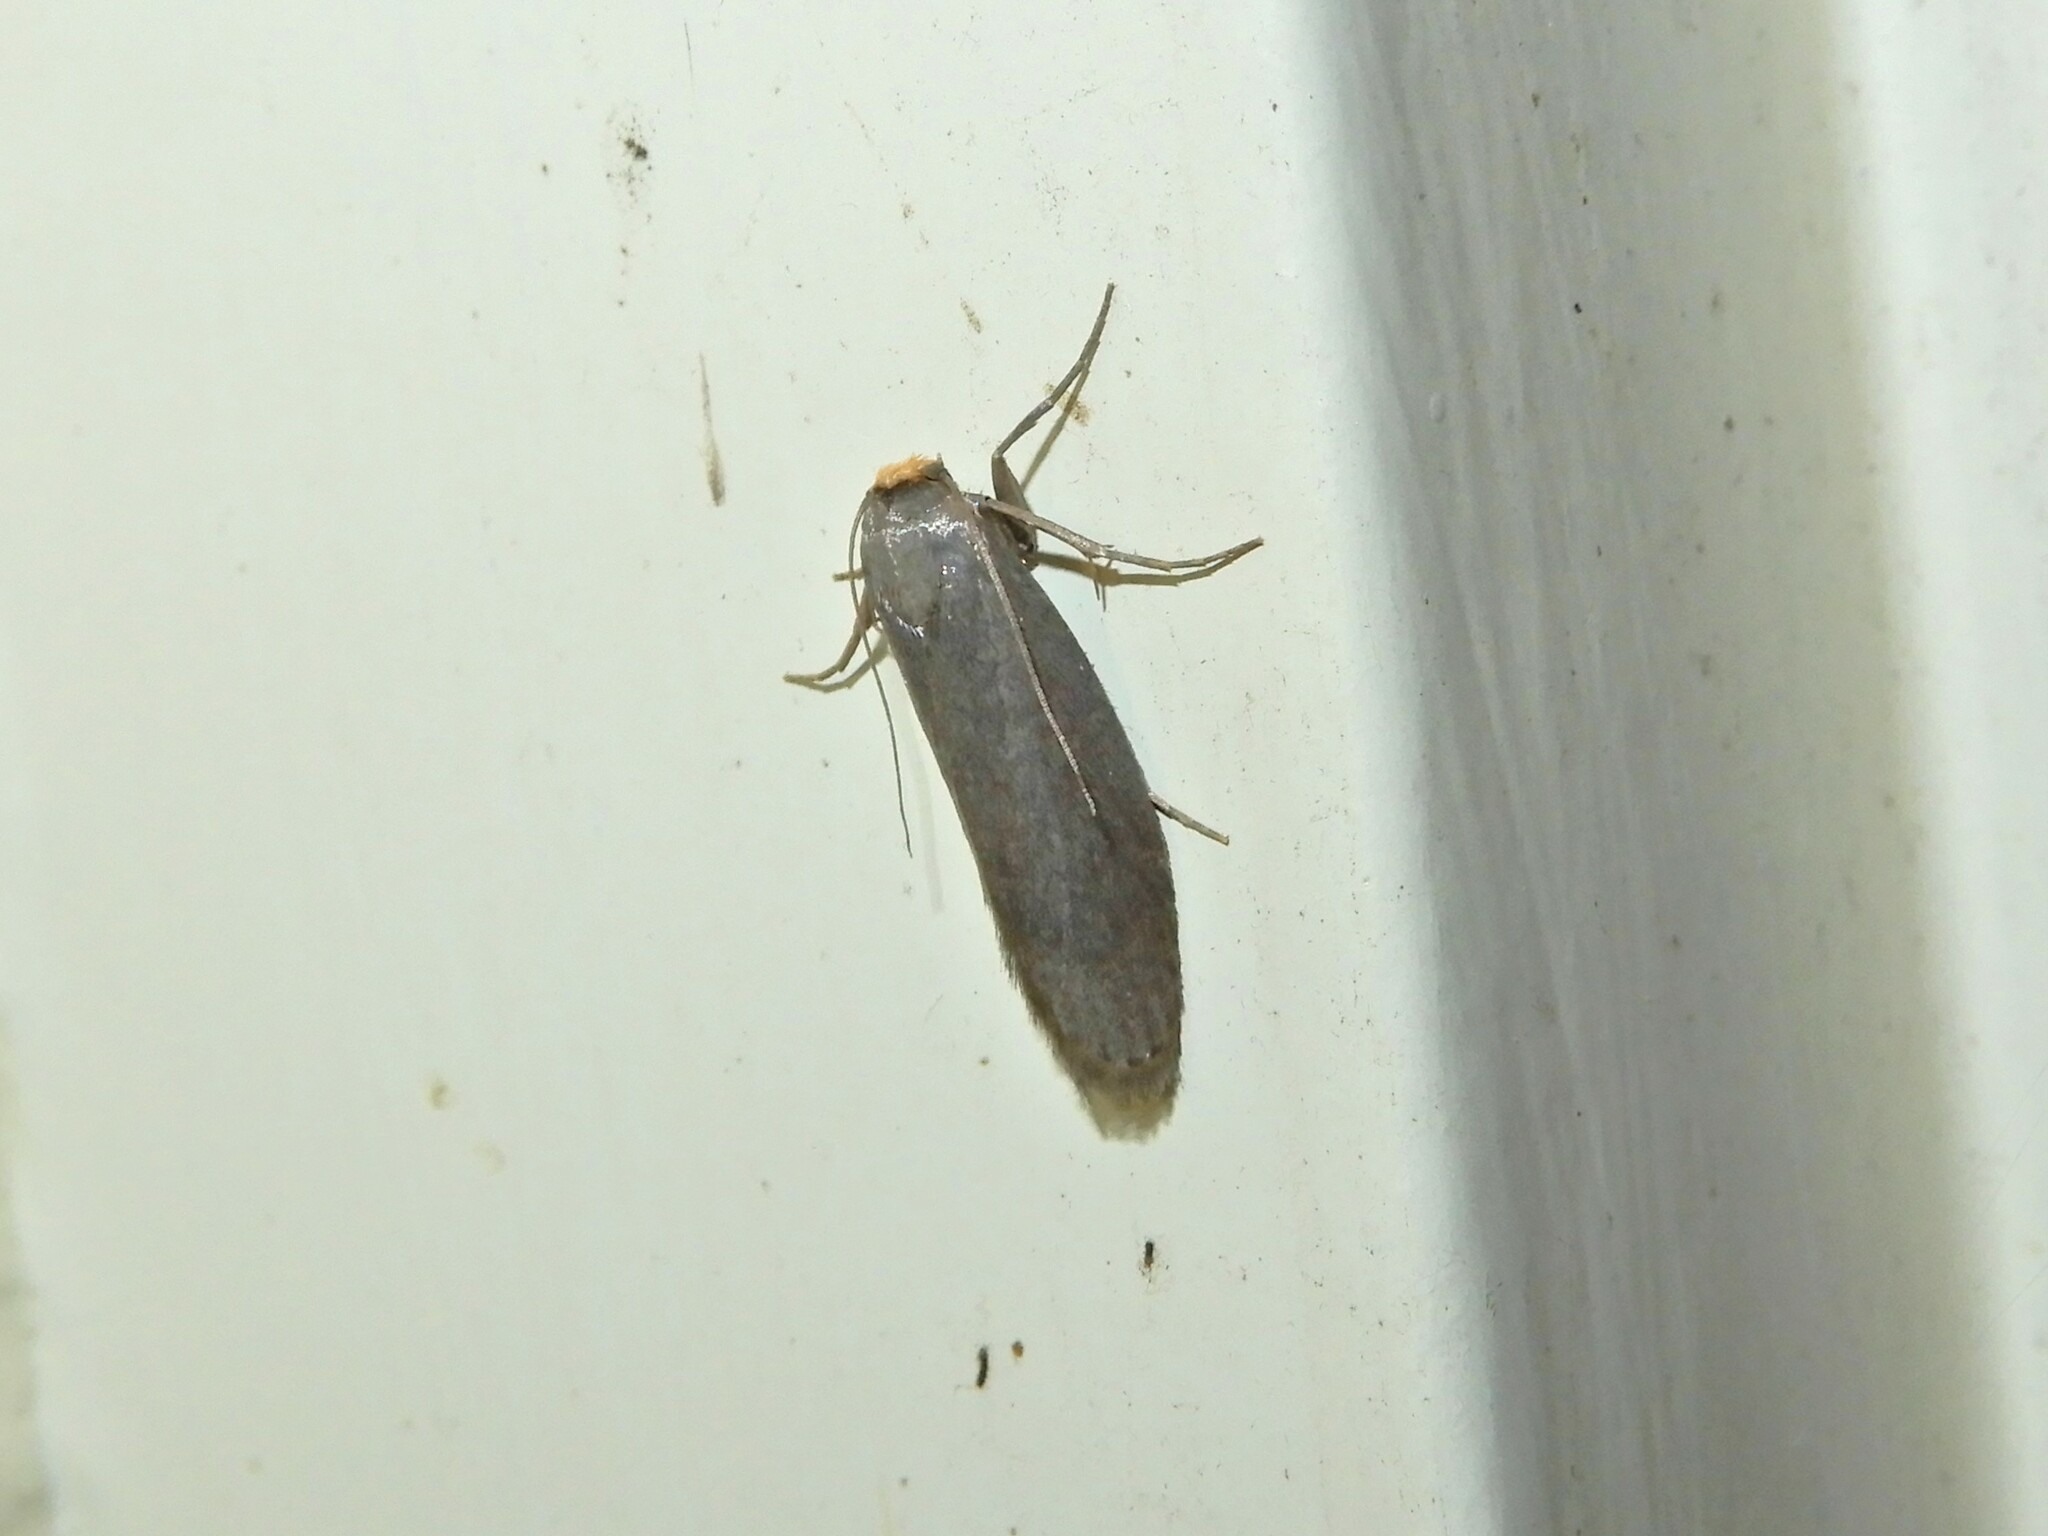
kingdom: Animalia
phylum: Arthropoda
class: Insecta
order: Lepidoptera
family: Pyralidae
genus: Achroia
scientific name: Achroia grisella
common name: Lesser wax moth
